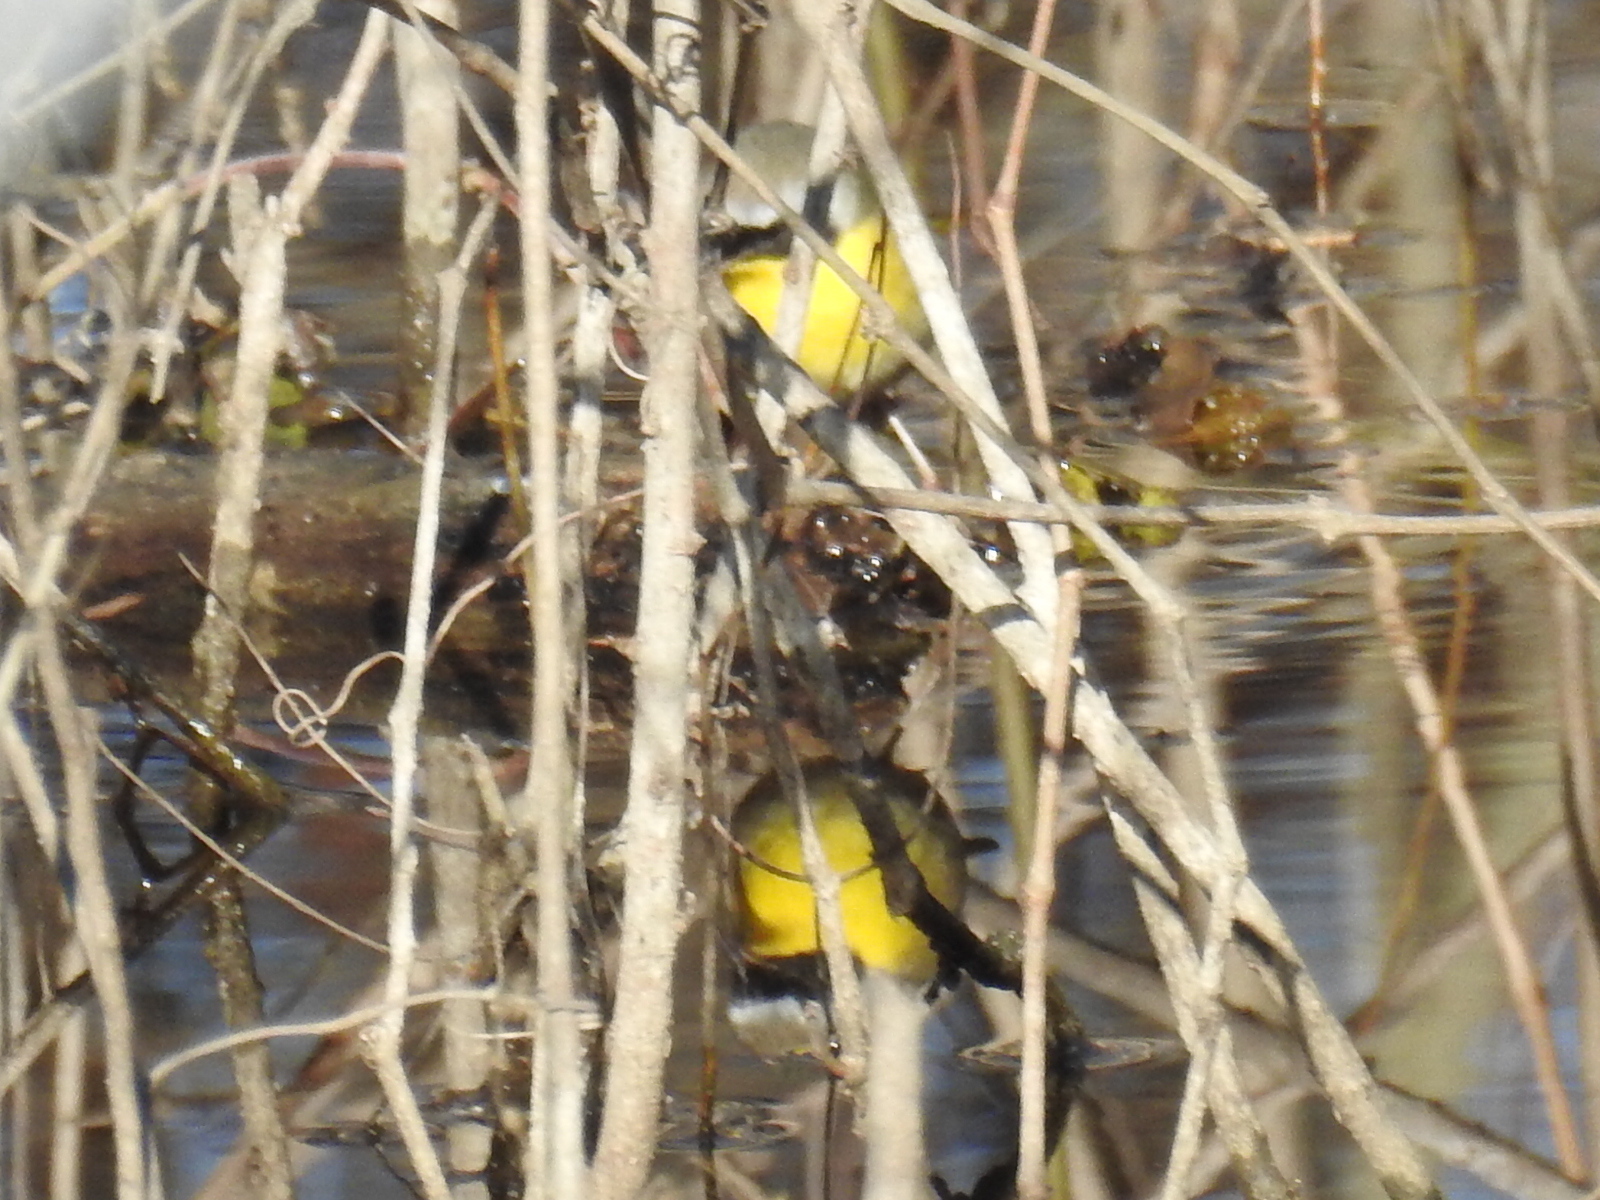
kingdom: Animalia
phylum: Chordata
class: Aves
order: Passeriformes
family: Parulidae
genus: Geothlypis
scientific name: Geothlypis trichas
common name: Common yellowthroat
